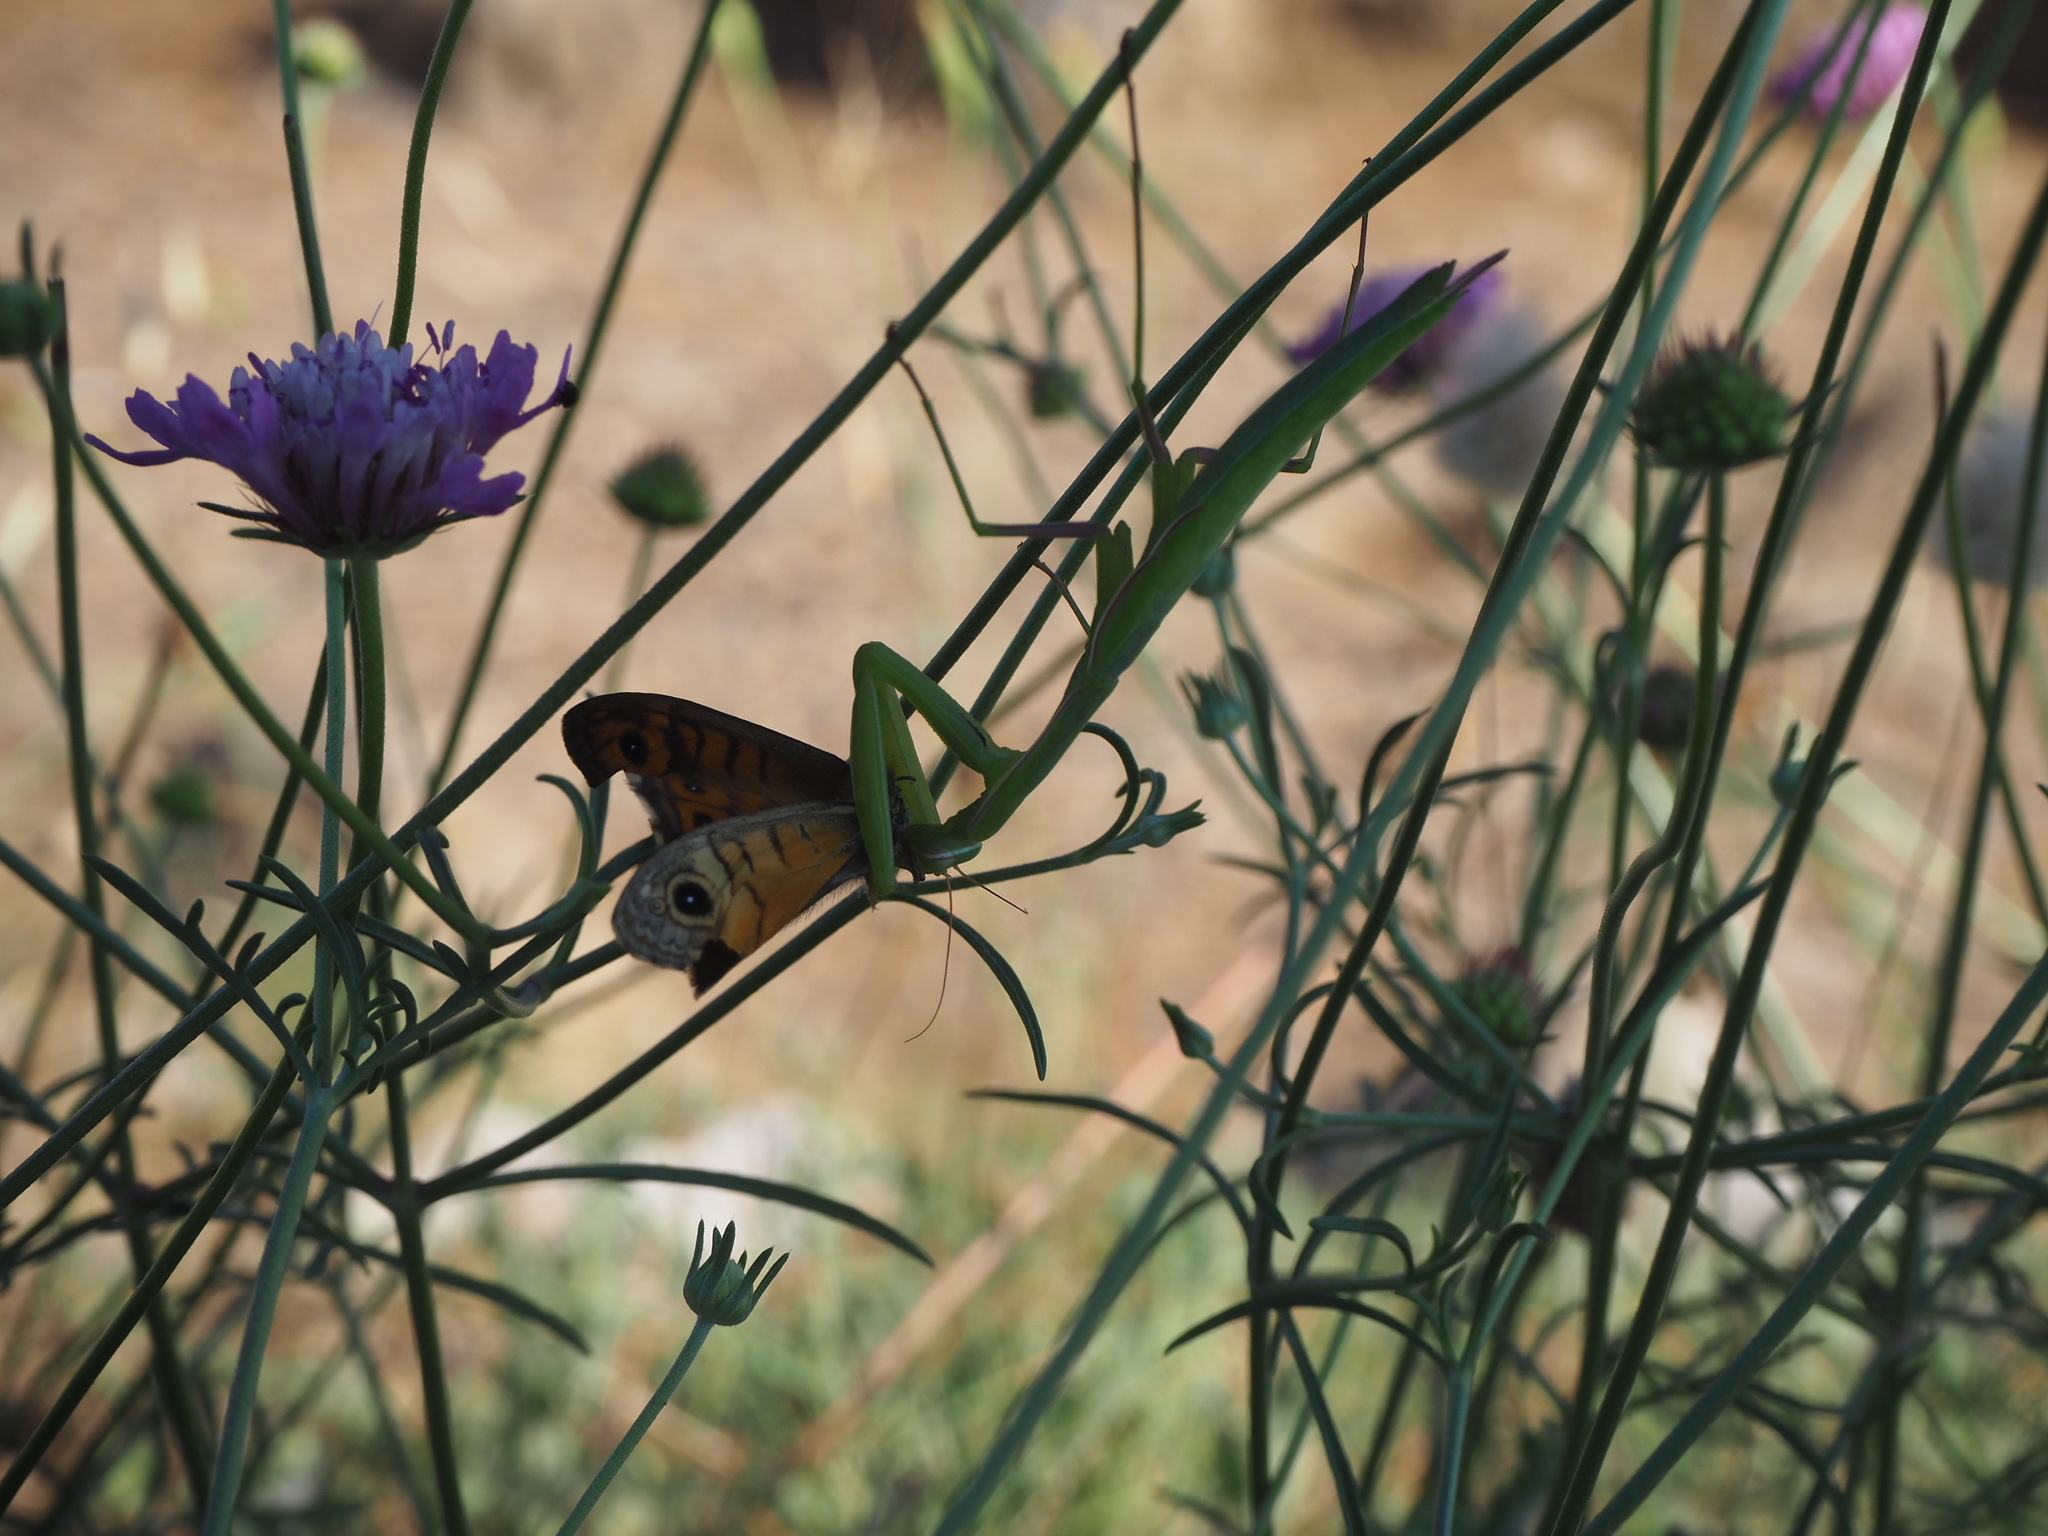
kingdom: Animalia
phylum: Arthropoda
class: Insecta
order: Mantodea
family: Mantidae
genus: Mantis
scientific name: Mantis religiosa
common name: Praying mantis
